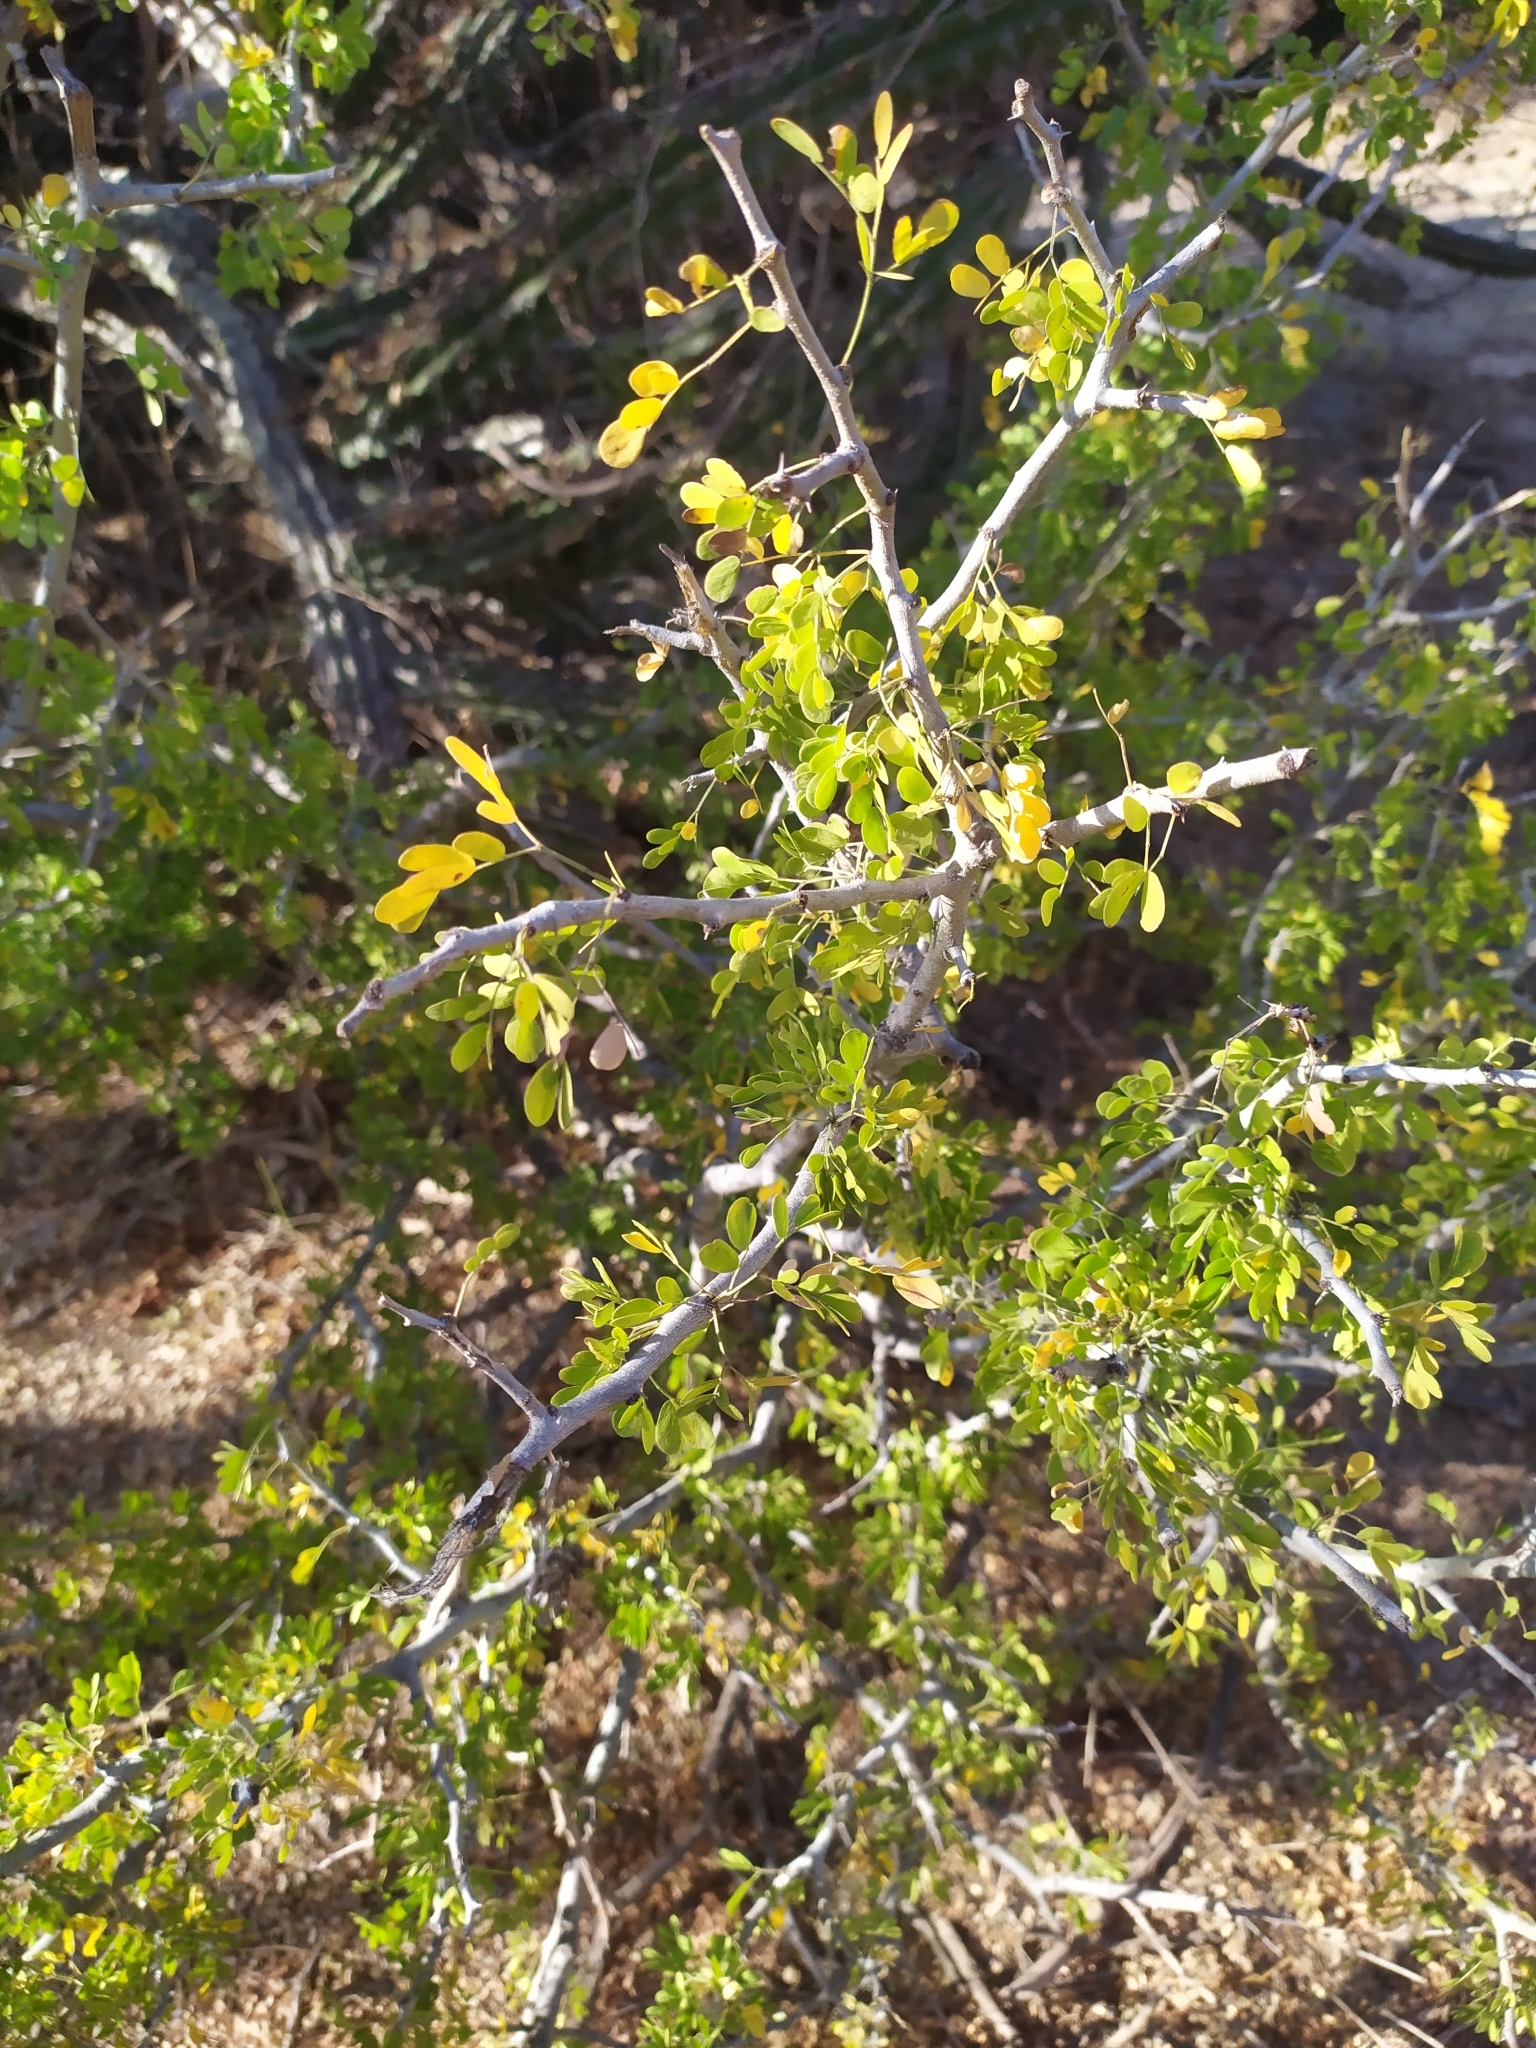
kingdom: Plantae
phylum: Tracheophyta
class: Magnoliopsida
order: Fabales
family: Fabaceae
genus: Ebenopsis
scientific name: Ebenopsis confinis
